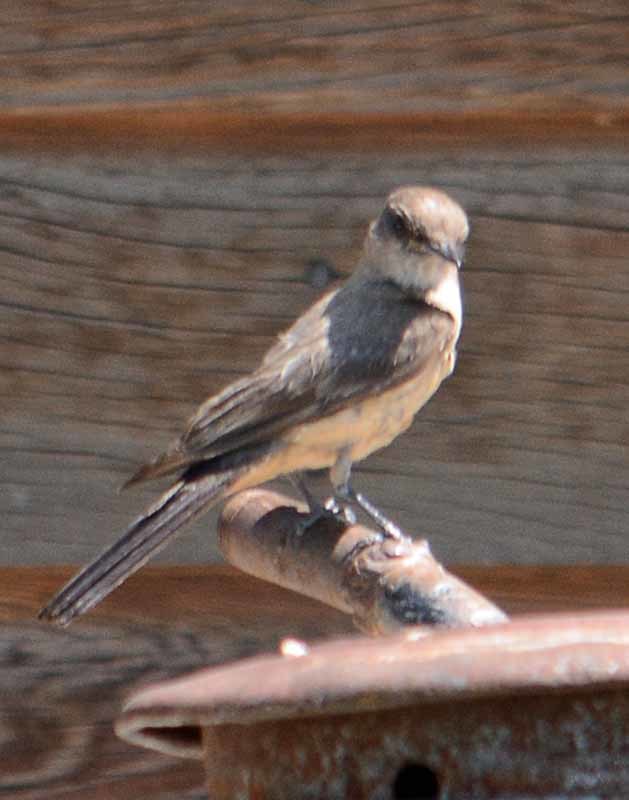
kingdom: Animalia
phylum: Chordata
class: Aves
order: Passeriformes
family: Tyrannidae
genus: Sayornis
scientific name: Sayornis saya
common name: Say's phoebe
